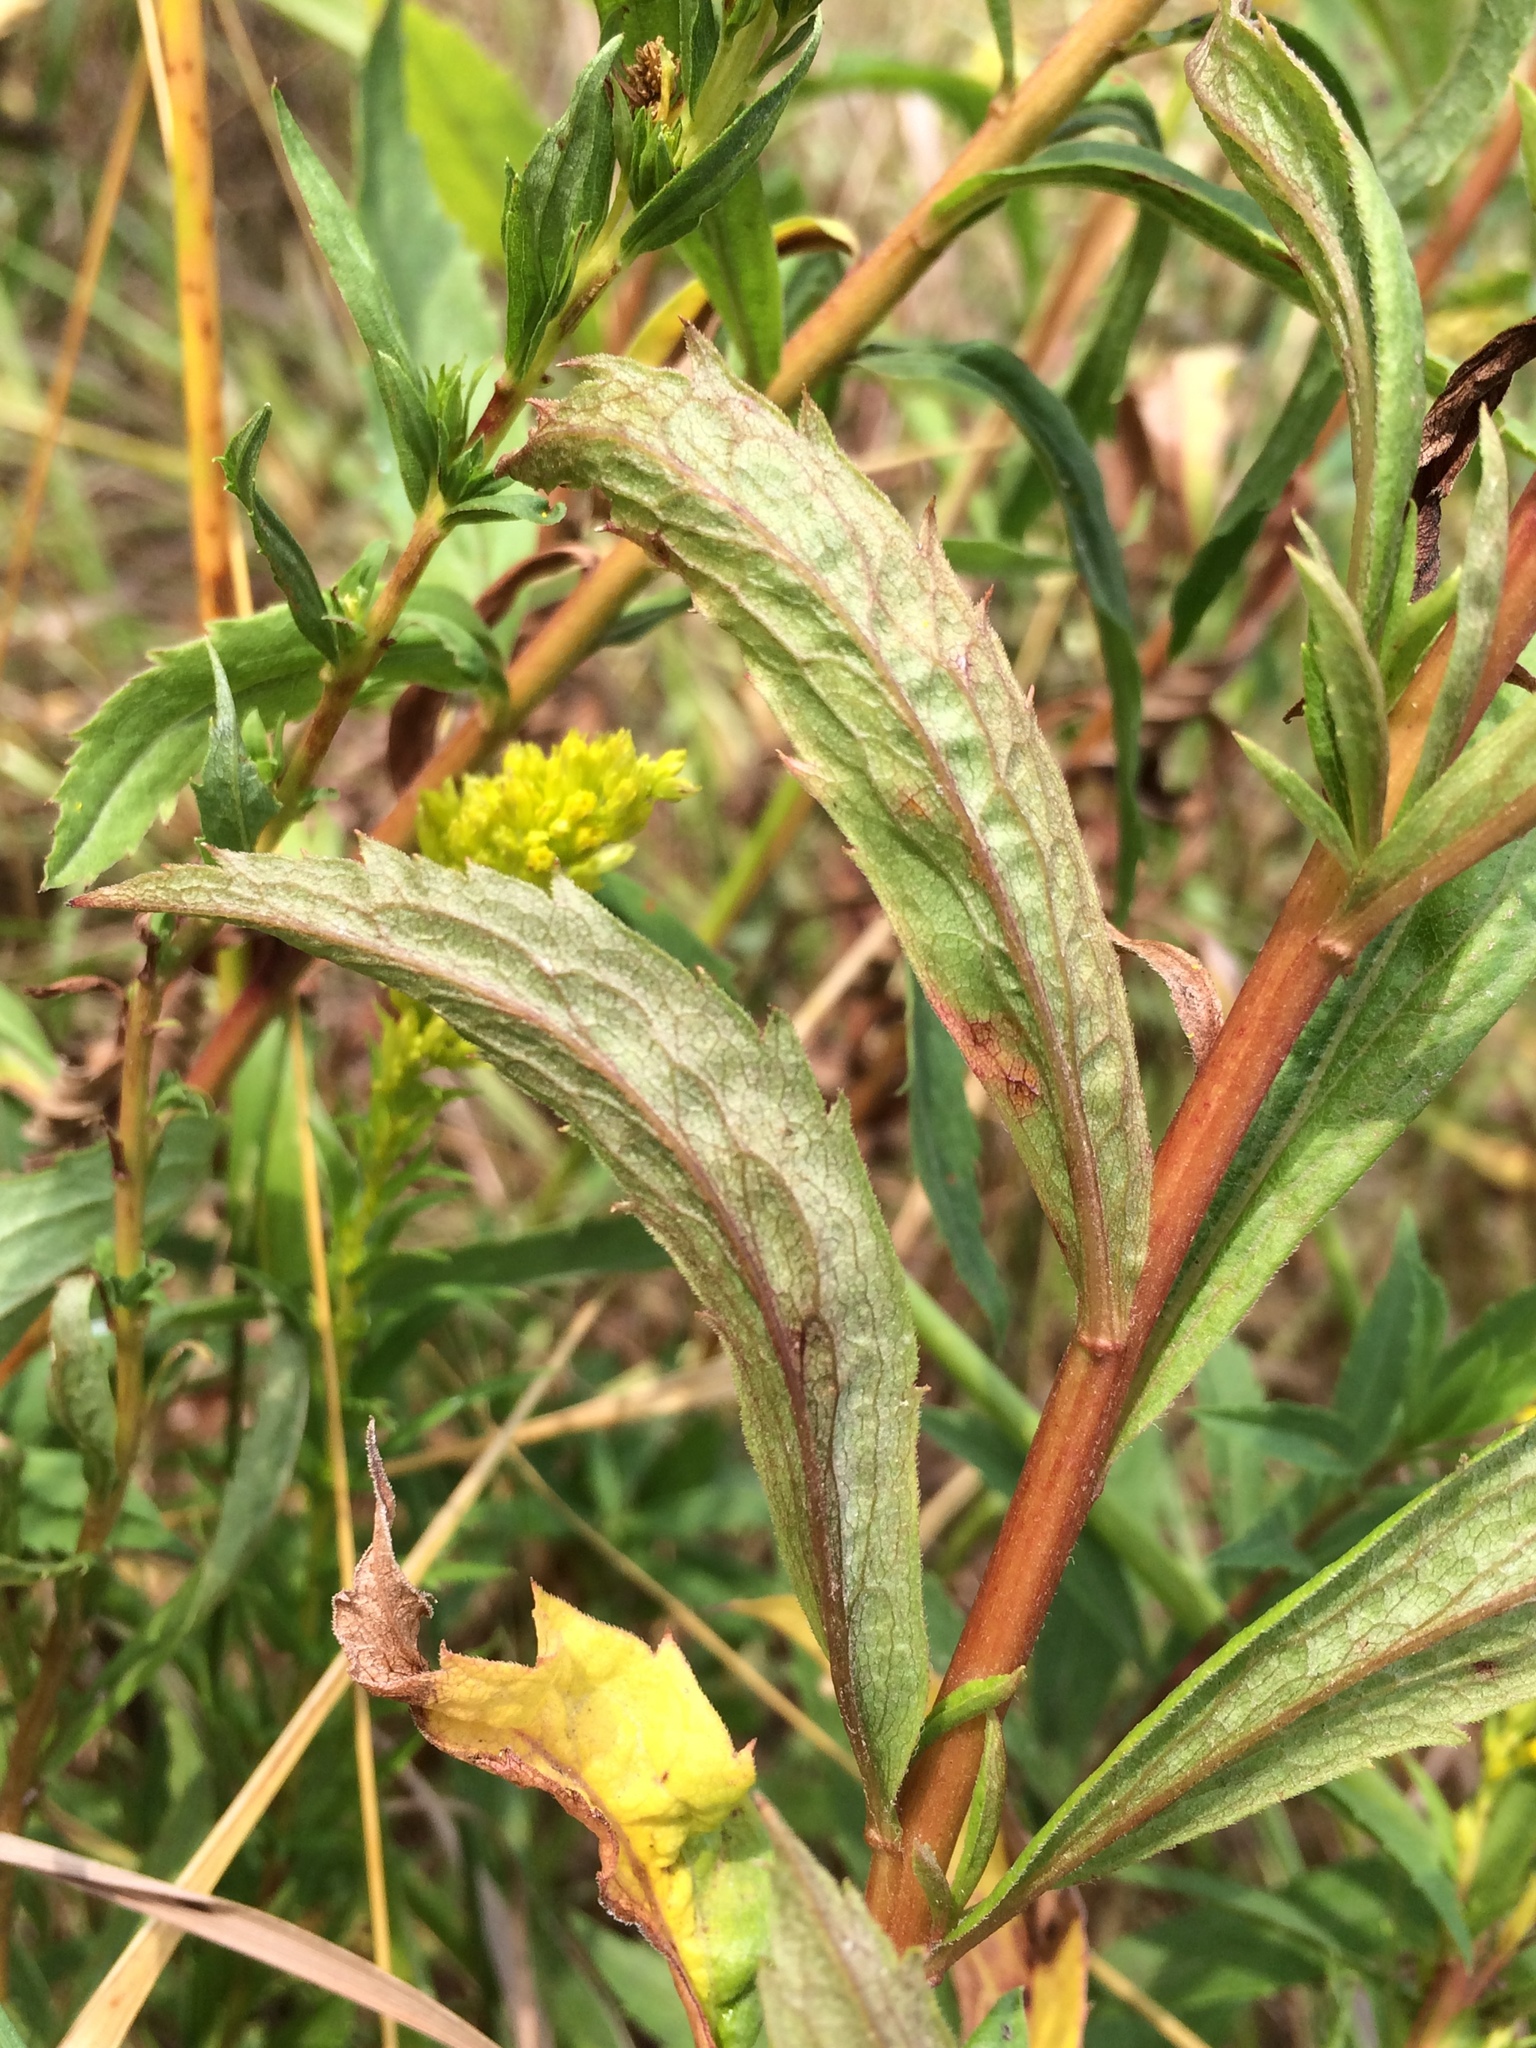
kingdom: Plantae
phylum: Tracheophyta
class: Magnoliopsida
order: Asterales
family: Asteraceae
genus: Solidago
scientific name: Solidago canadensis
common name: Canada goldenrod
